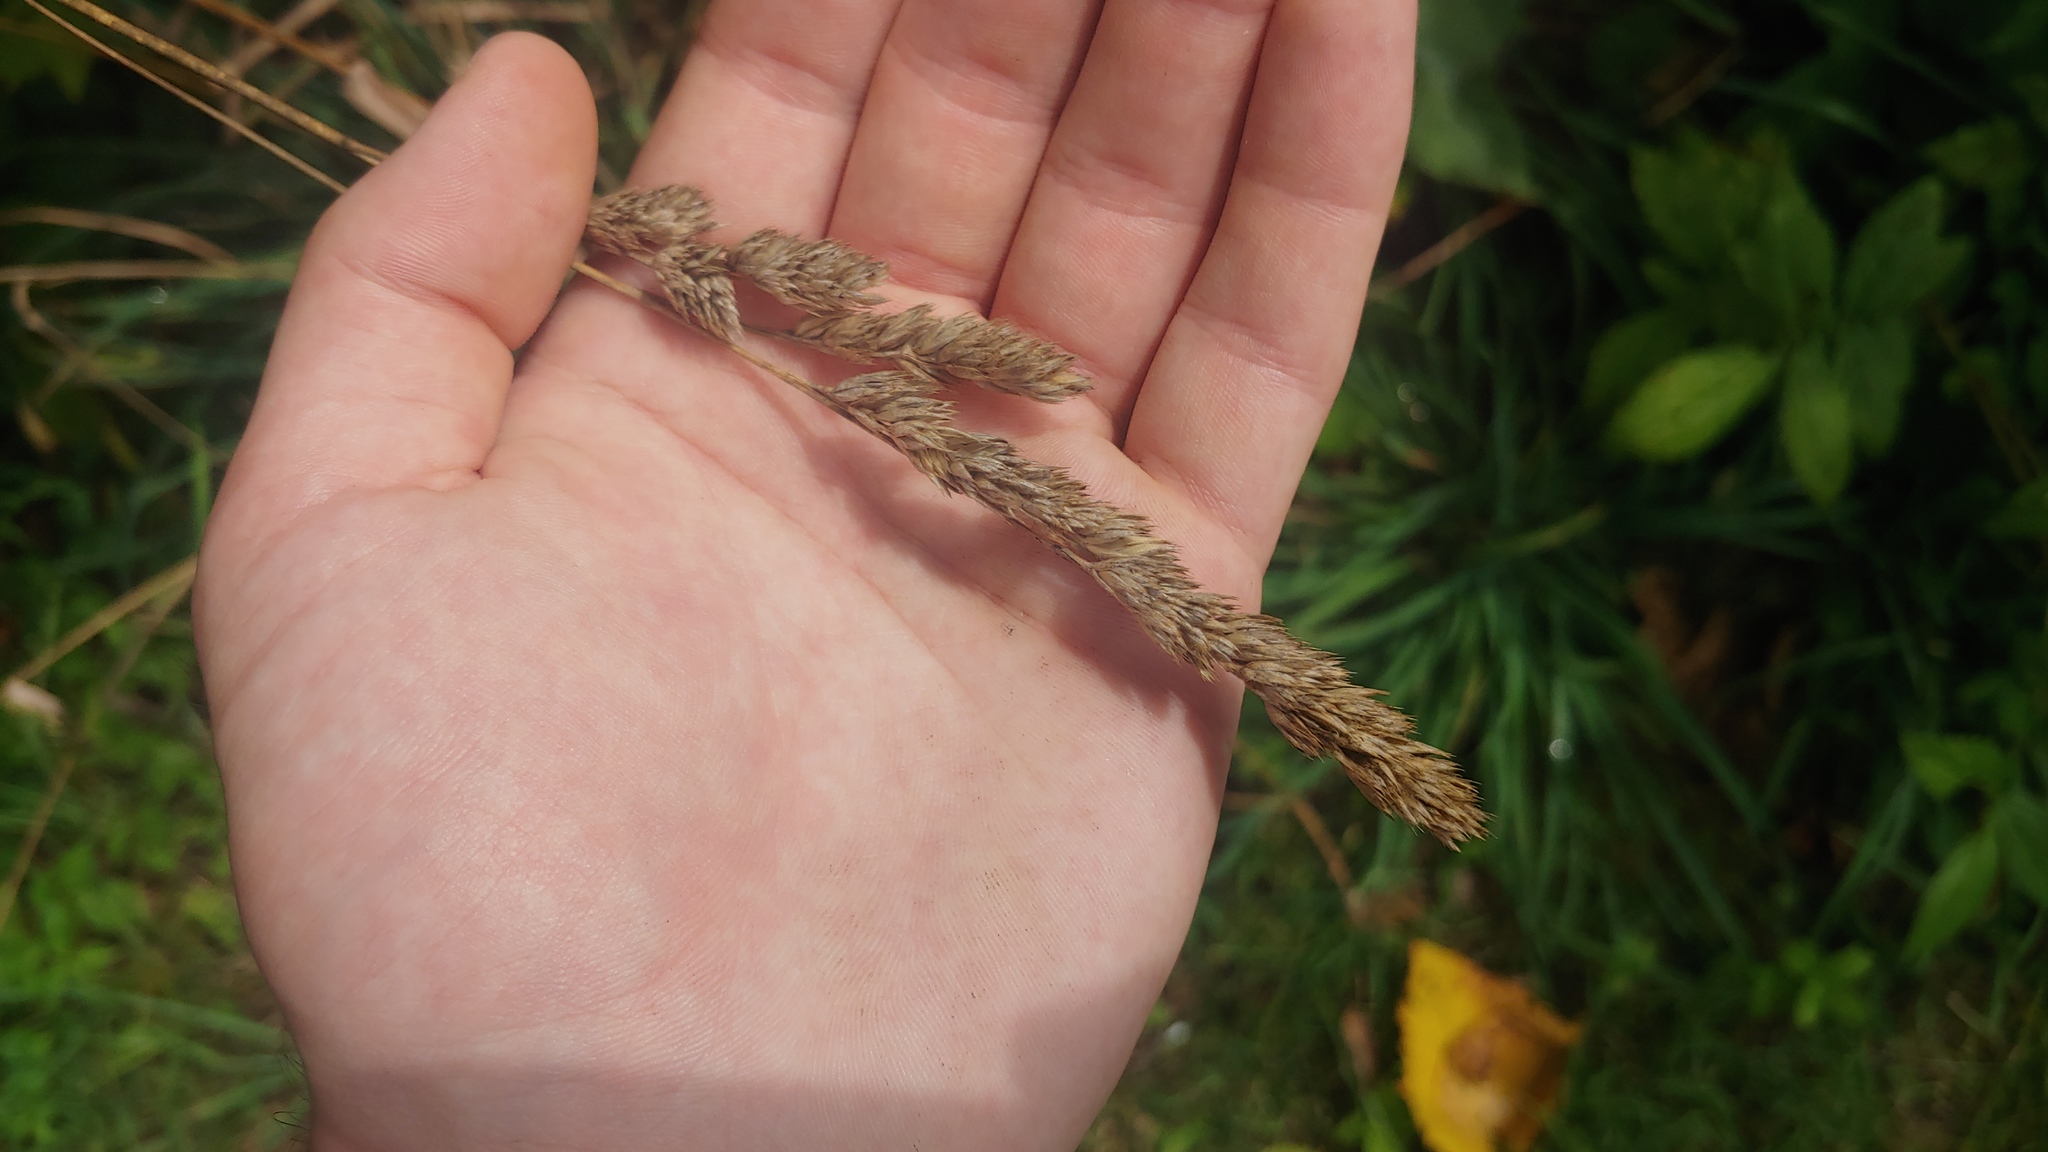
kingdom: Plantae
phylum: Tracheophyta
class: Liliopsida
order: Poales
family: Poaceae
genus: Dactylis
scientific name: Dactylis glomerata
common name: Orchardgrass
